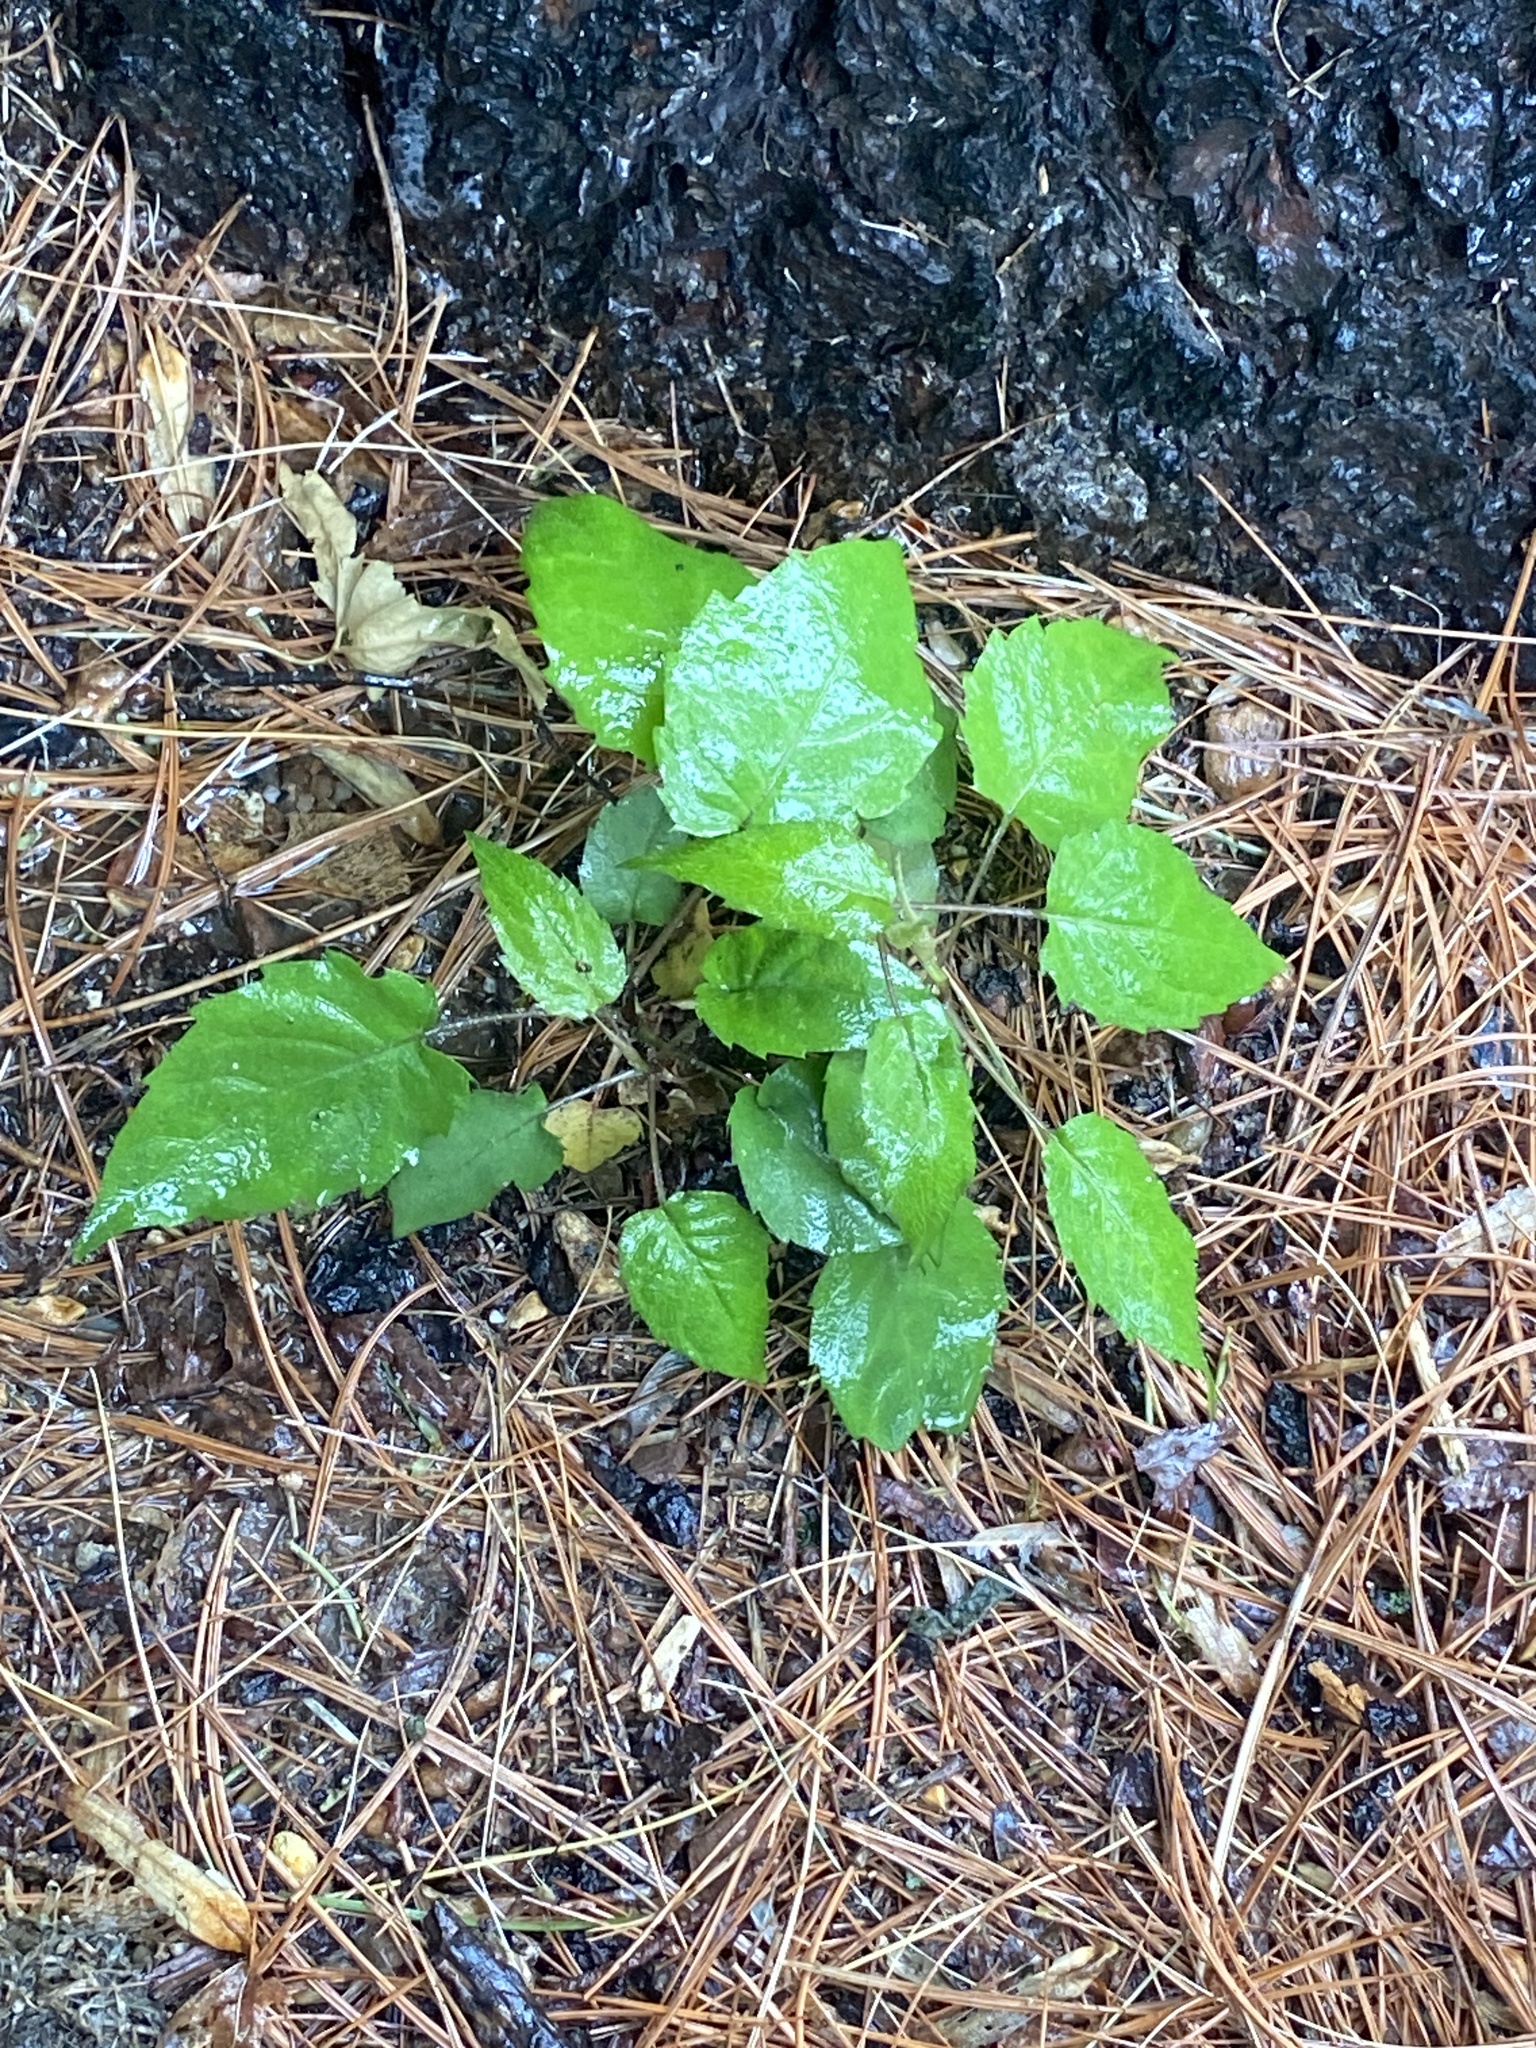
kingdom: Plantae
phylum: Tracheophyta
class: Magnoliopsida
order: Asterales
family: Asteraceae
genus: Eurybia
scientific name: Eurybia divaricata
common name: White wood aster
